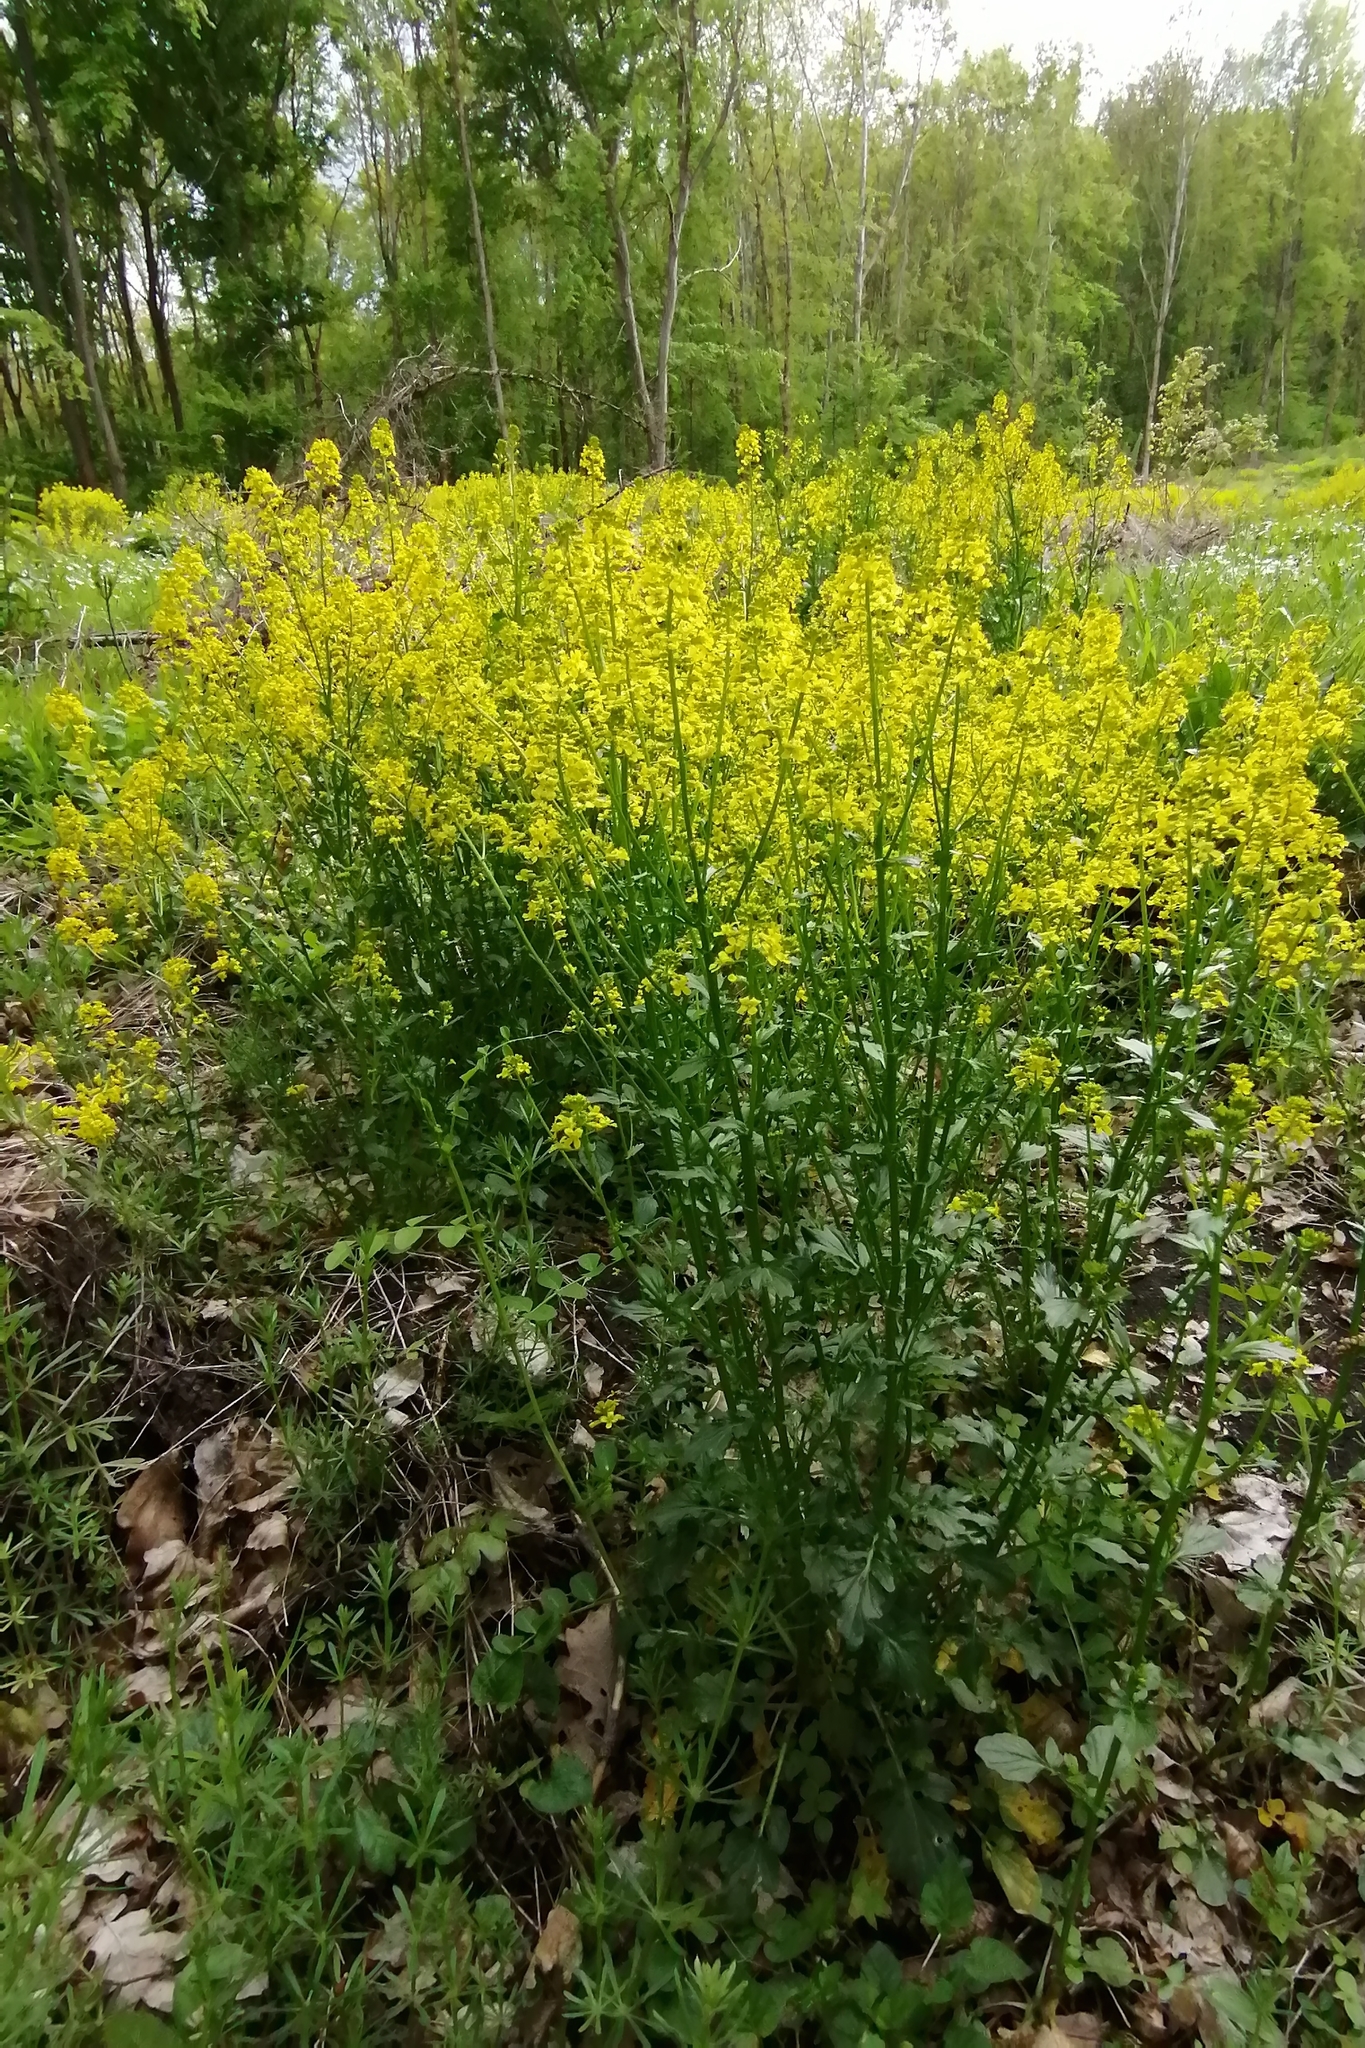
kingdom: Plantae
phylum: Tracheophyta
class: Magnoliopsida
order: Brassicales
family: Brassicaceae
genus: Barbarea
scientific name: Barbarea vulgaris
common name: Cressy-greens
